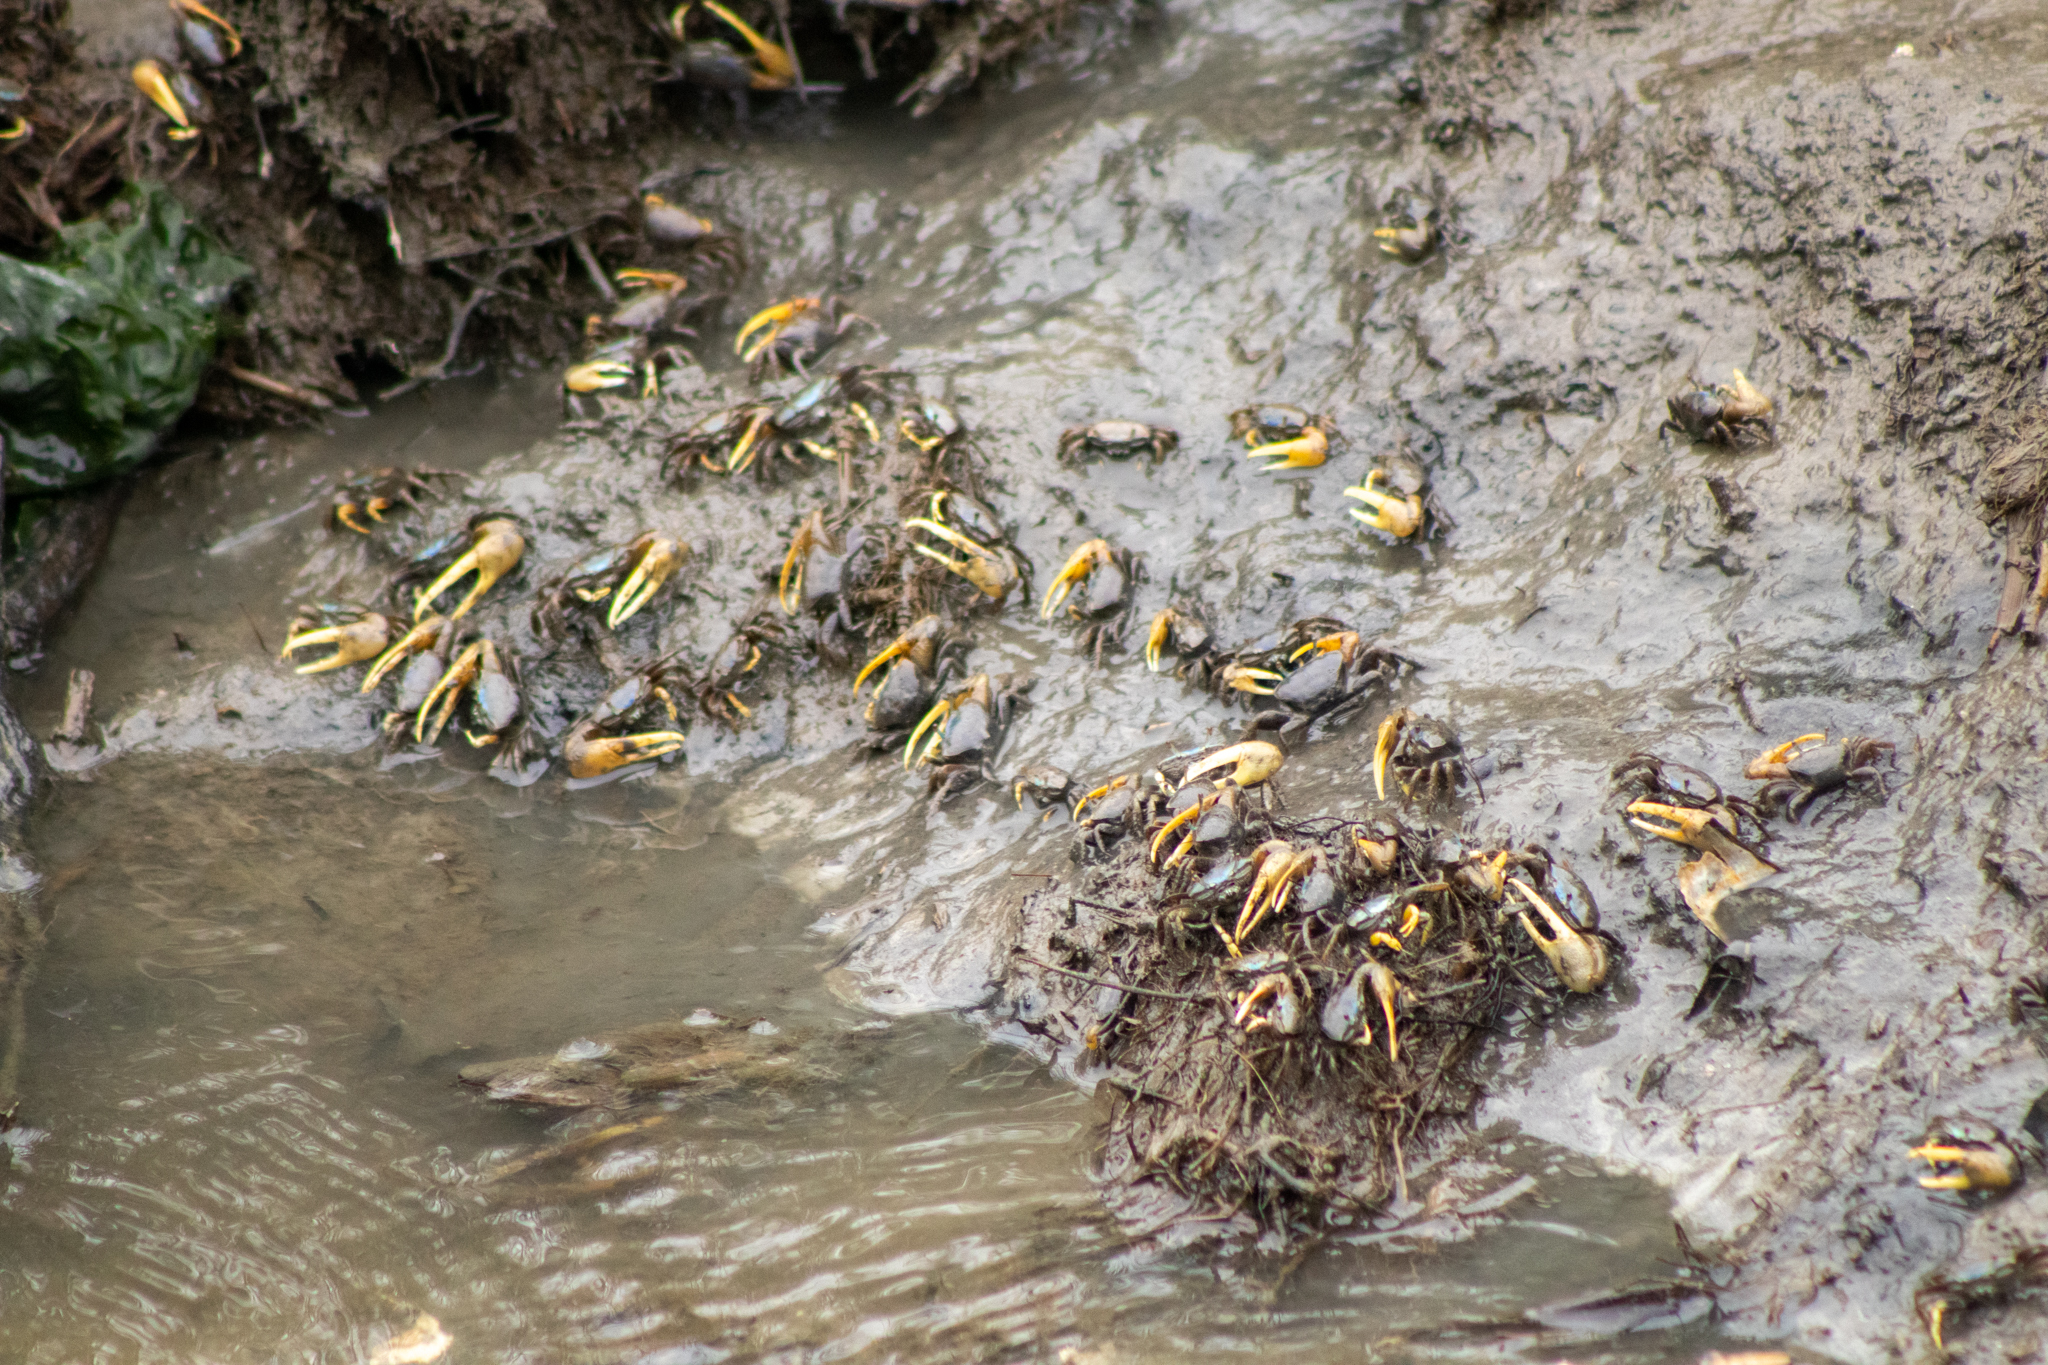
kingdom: Animalia
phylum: Arthropoda
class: Malacostraca
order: Decapoda
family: Ocypodidae
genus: Minuca
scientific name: Minuca pugnax
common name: Mud fiddler crab
